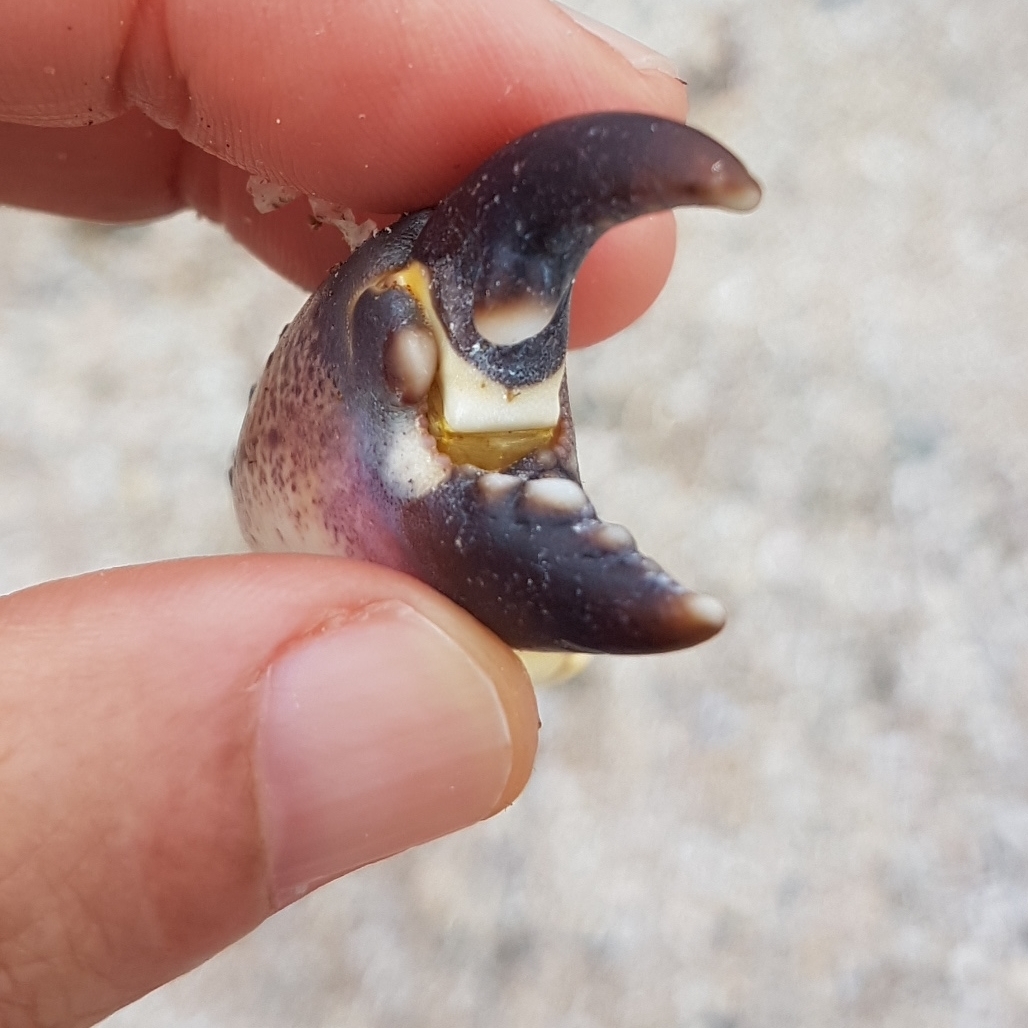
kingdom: Animalia
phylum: Arthropoda
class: Malacostraca
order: Decapoda
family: Eriphiidae
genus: Eriphia
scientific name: Eriphia verrucosa
